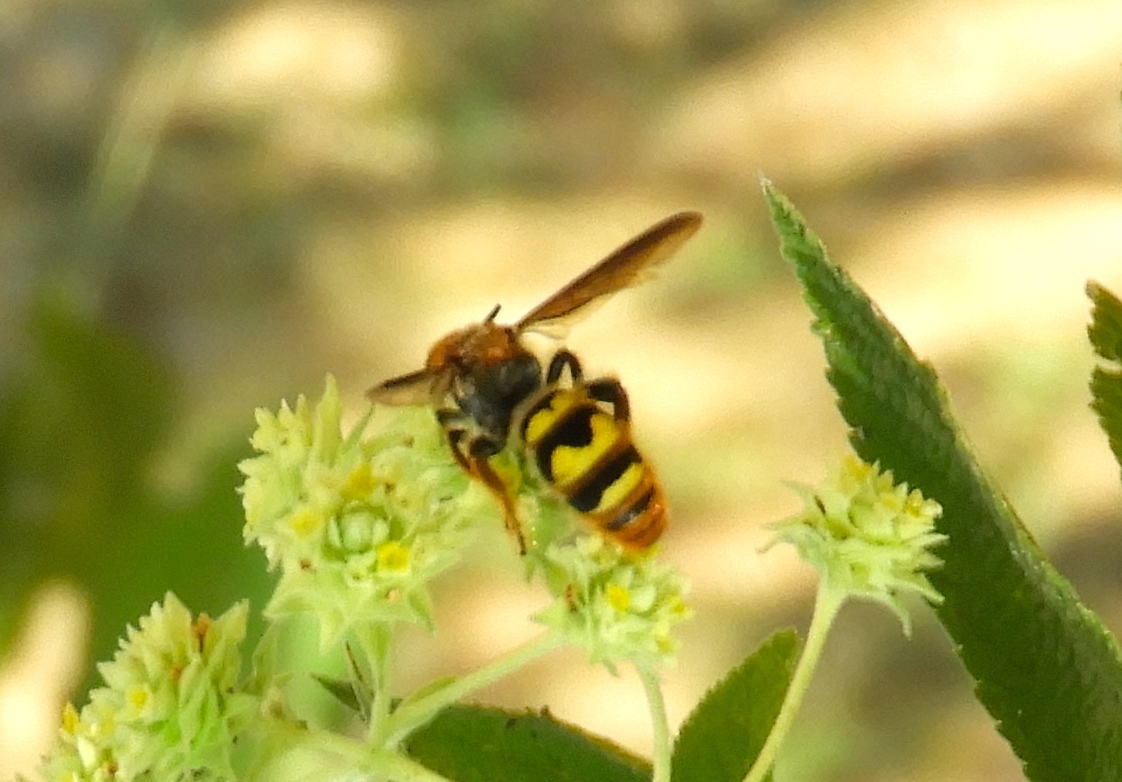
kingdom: Animalia
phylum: Arthropoda
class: Insecta
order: Hymenoptera
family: Scoliidae
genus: Xanthocampsomeris
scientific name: Xanthocampsomeris completa
